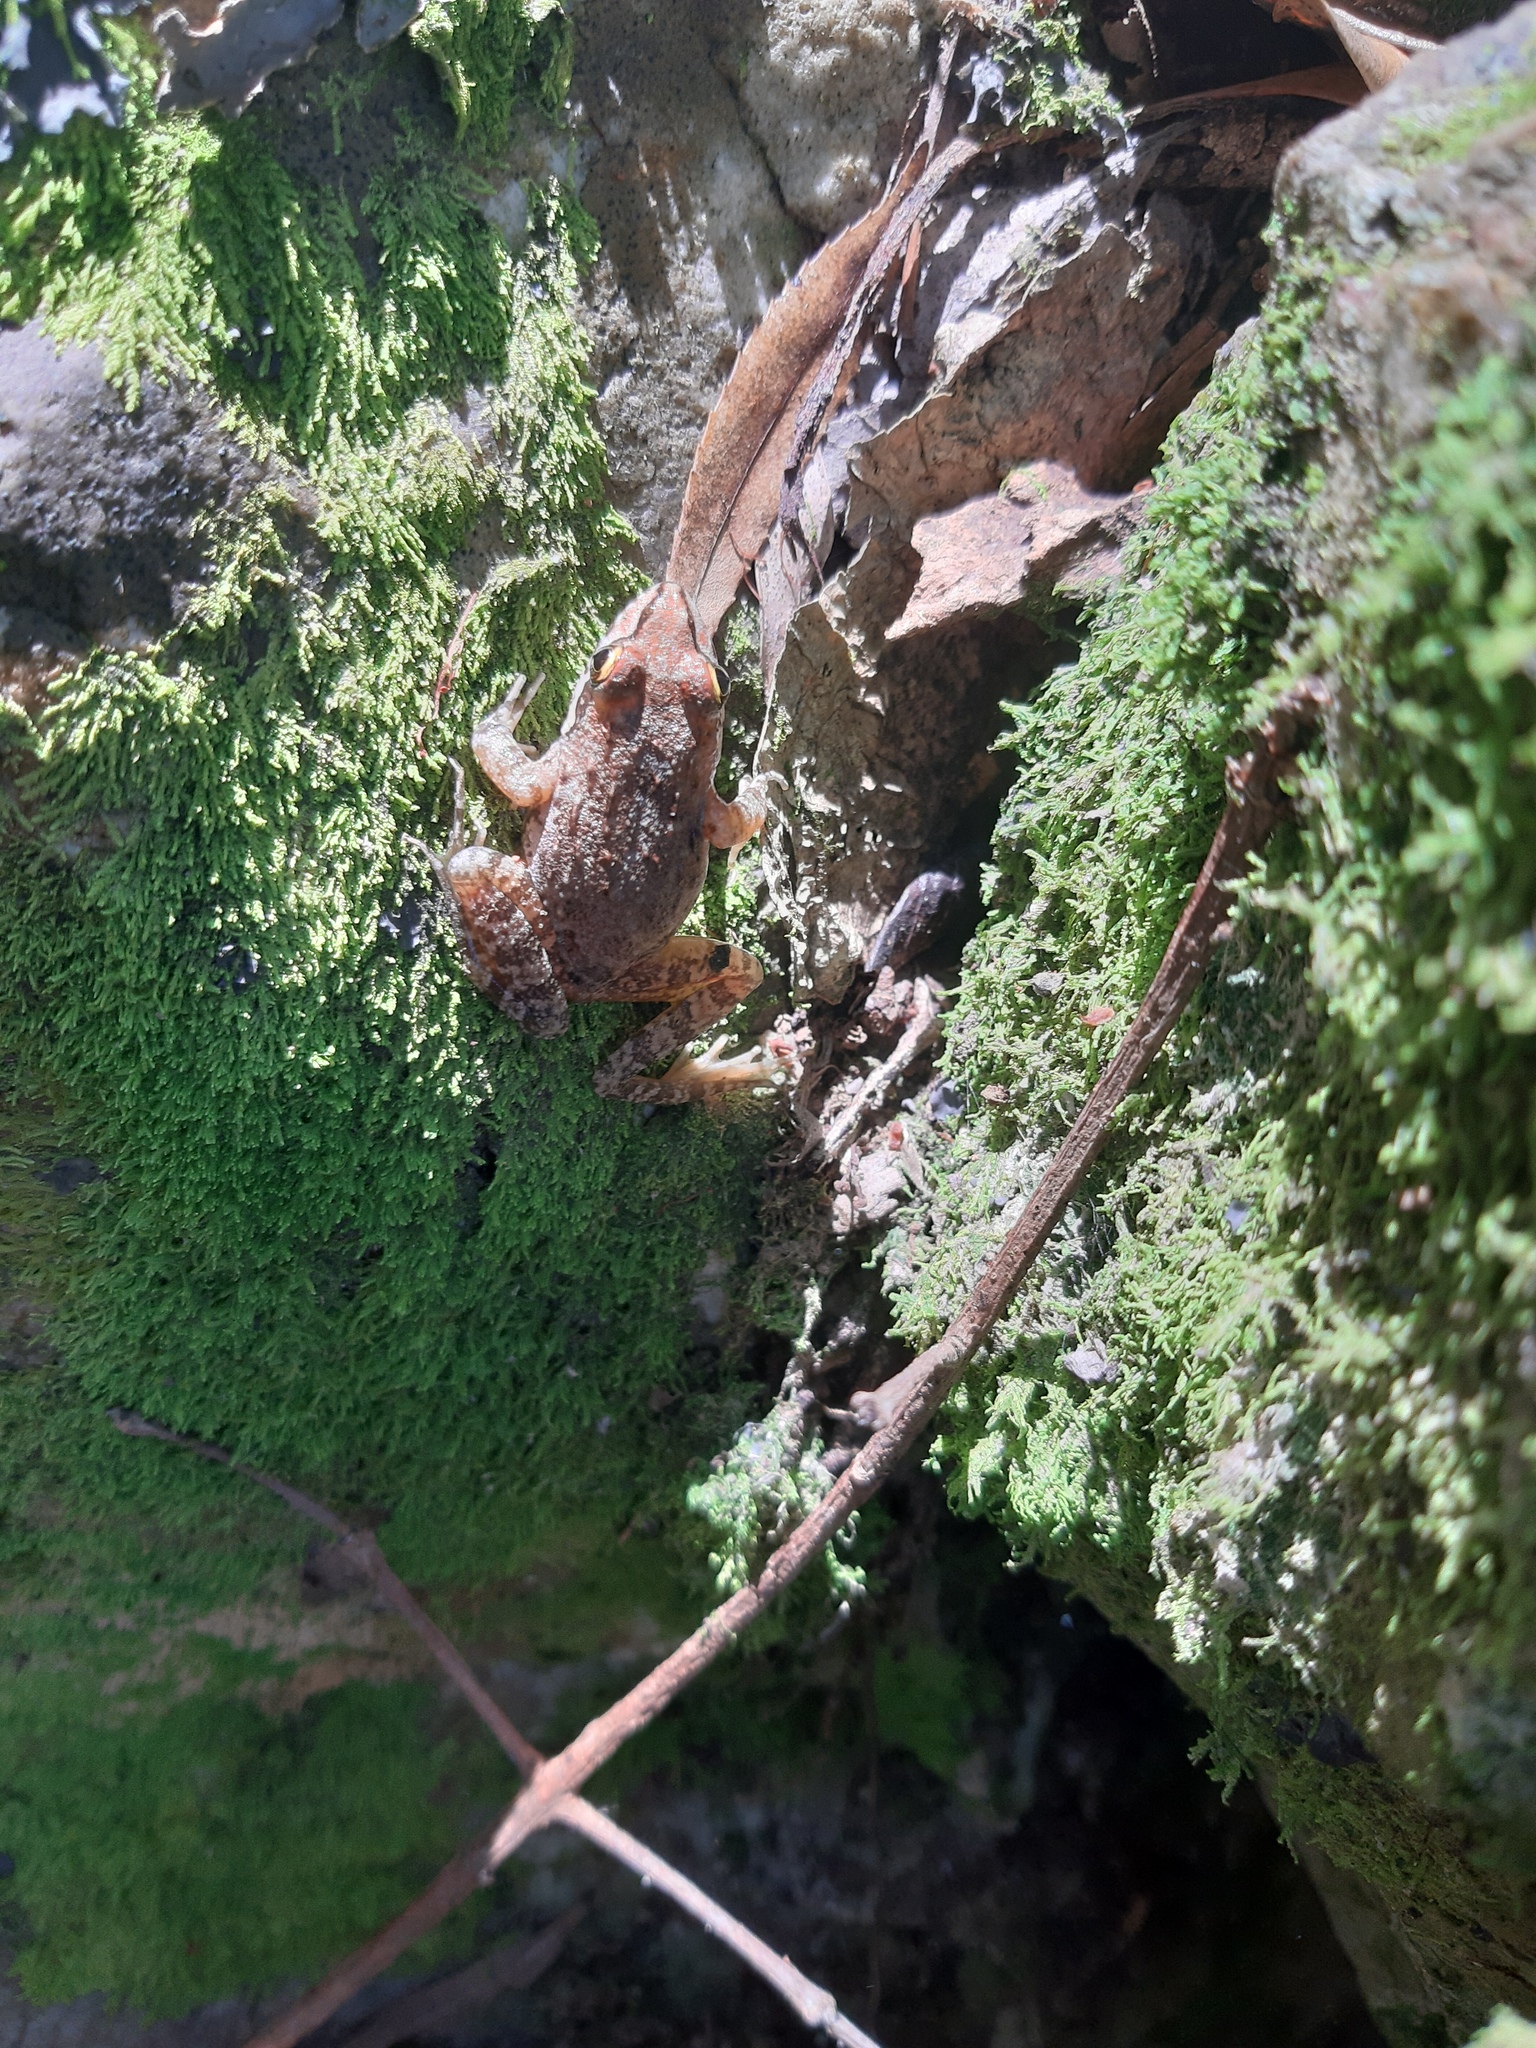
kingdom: Animalia
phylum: Chordata
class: Amphibia
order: Anura
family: Pyxicephalidae
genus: Amietia
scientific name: Amietia fuscigula
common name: Cape rana
